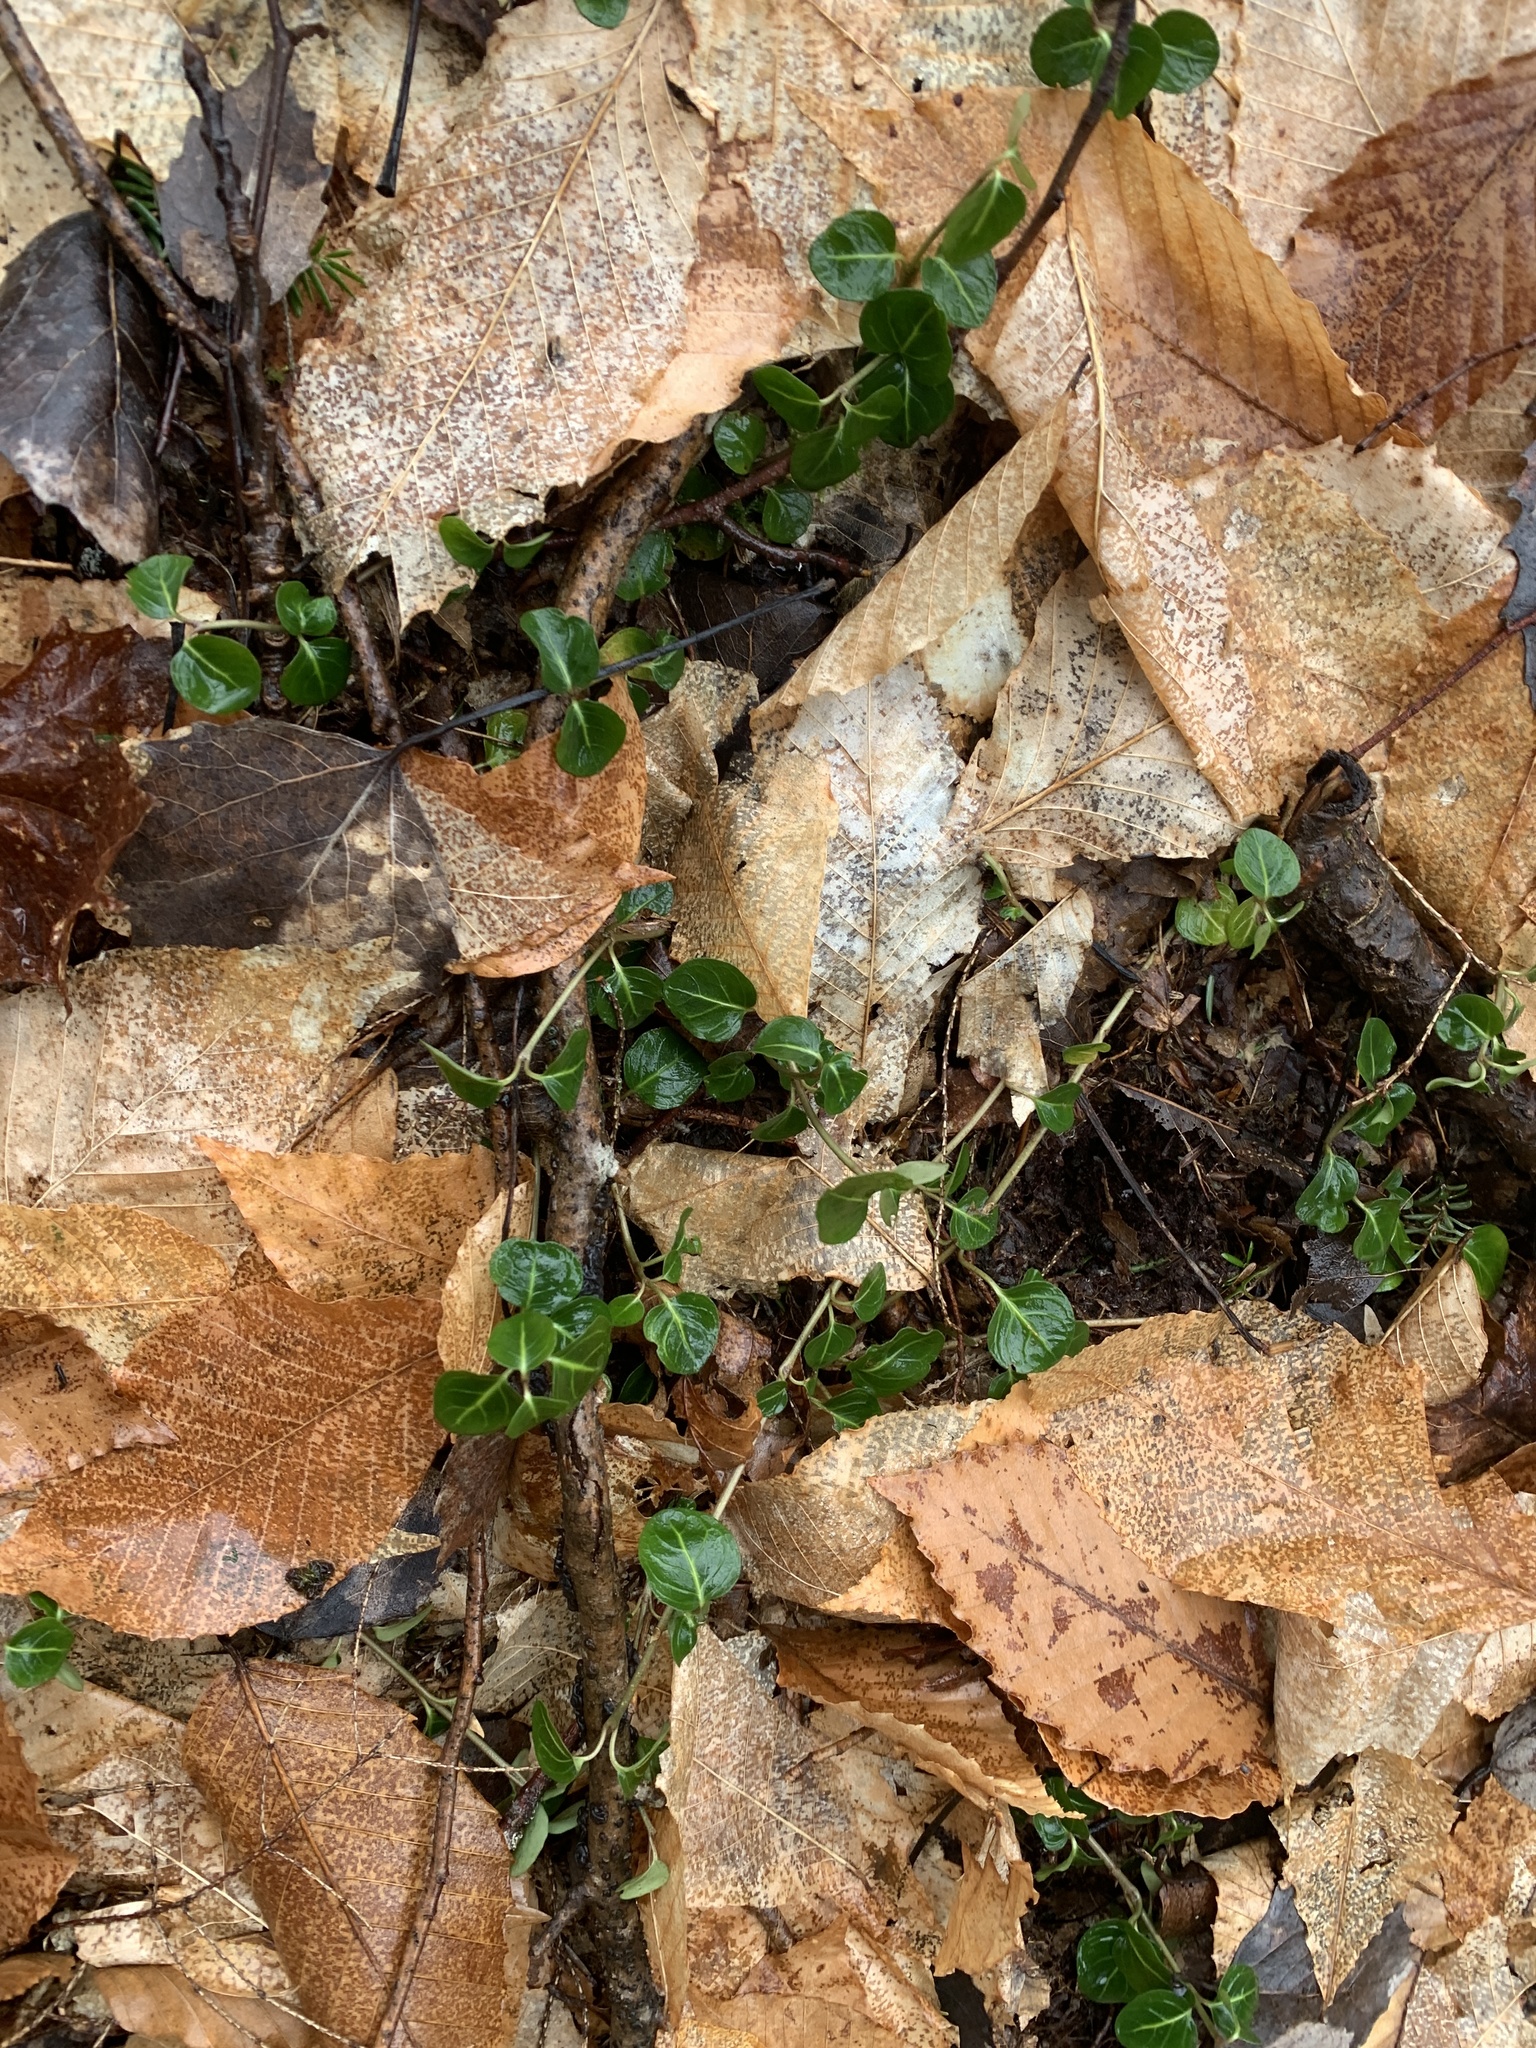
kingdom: Plantae
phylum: Tracheophyta
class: Magnoliopsida
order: Gentianales
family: Rubiaceae
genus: Mitchella
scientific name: Mitchella repens
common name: Partridge-berry
